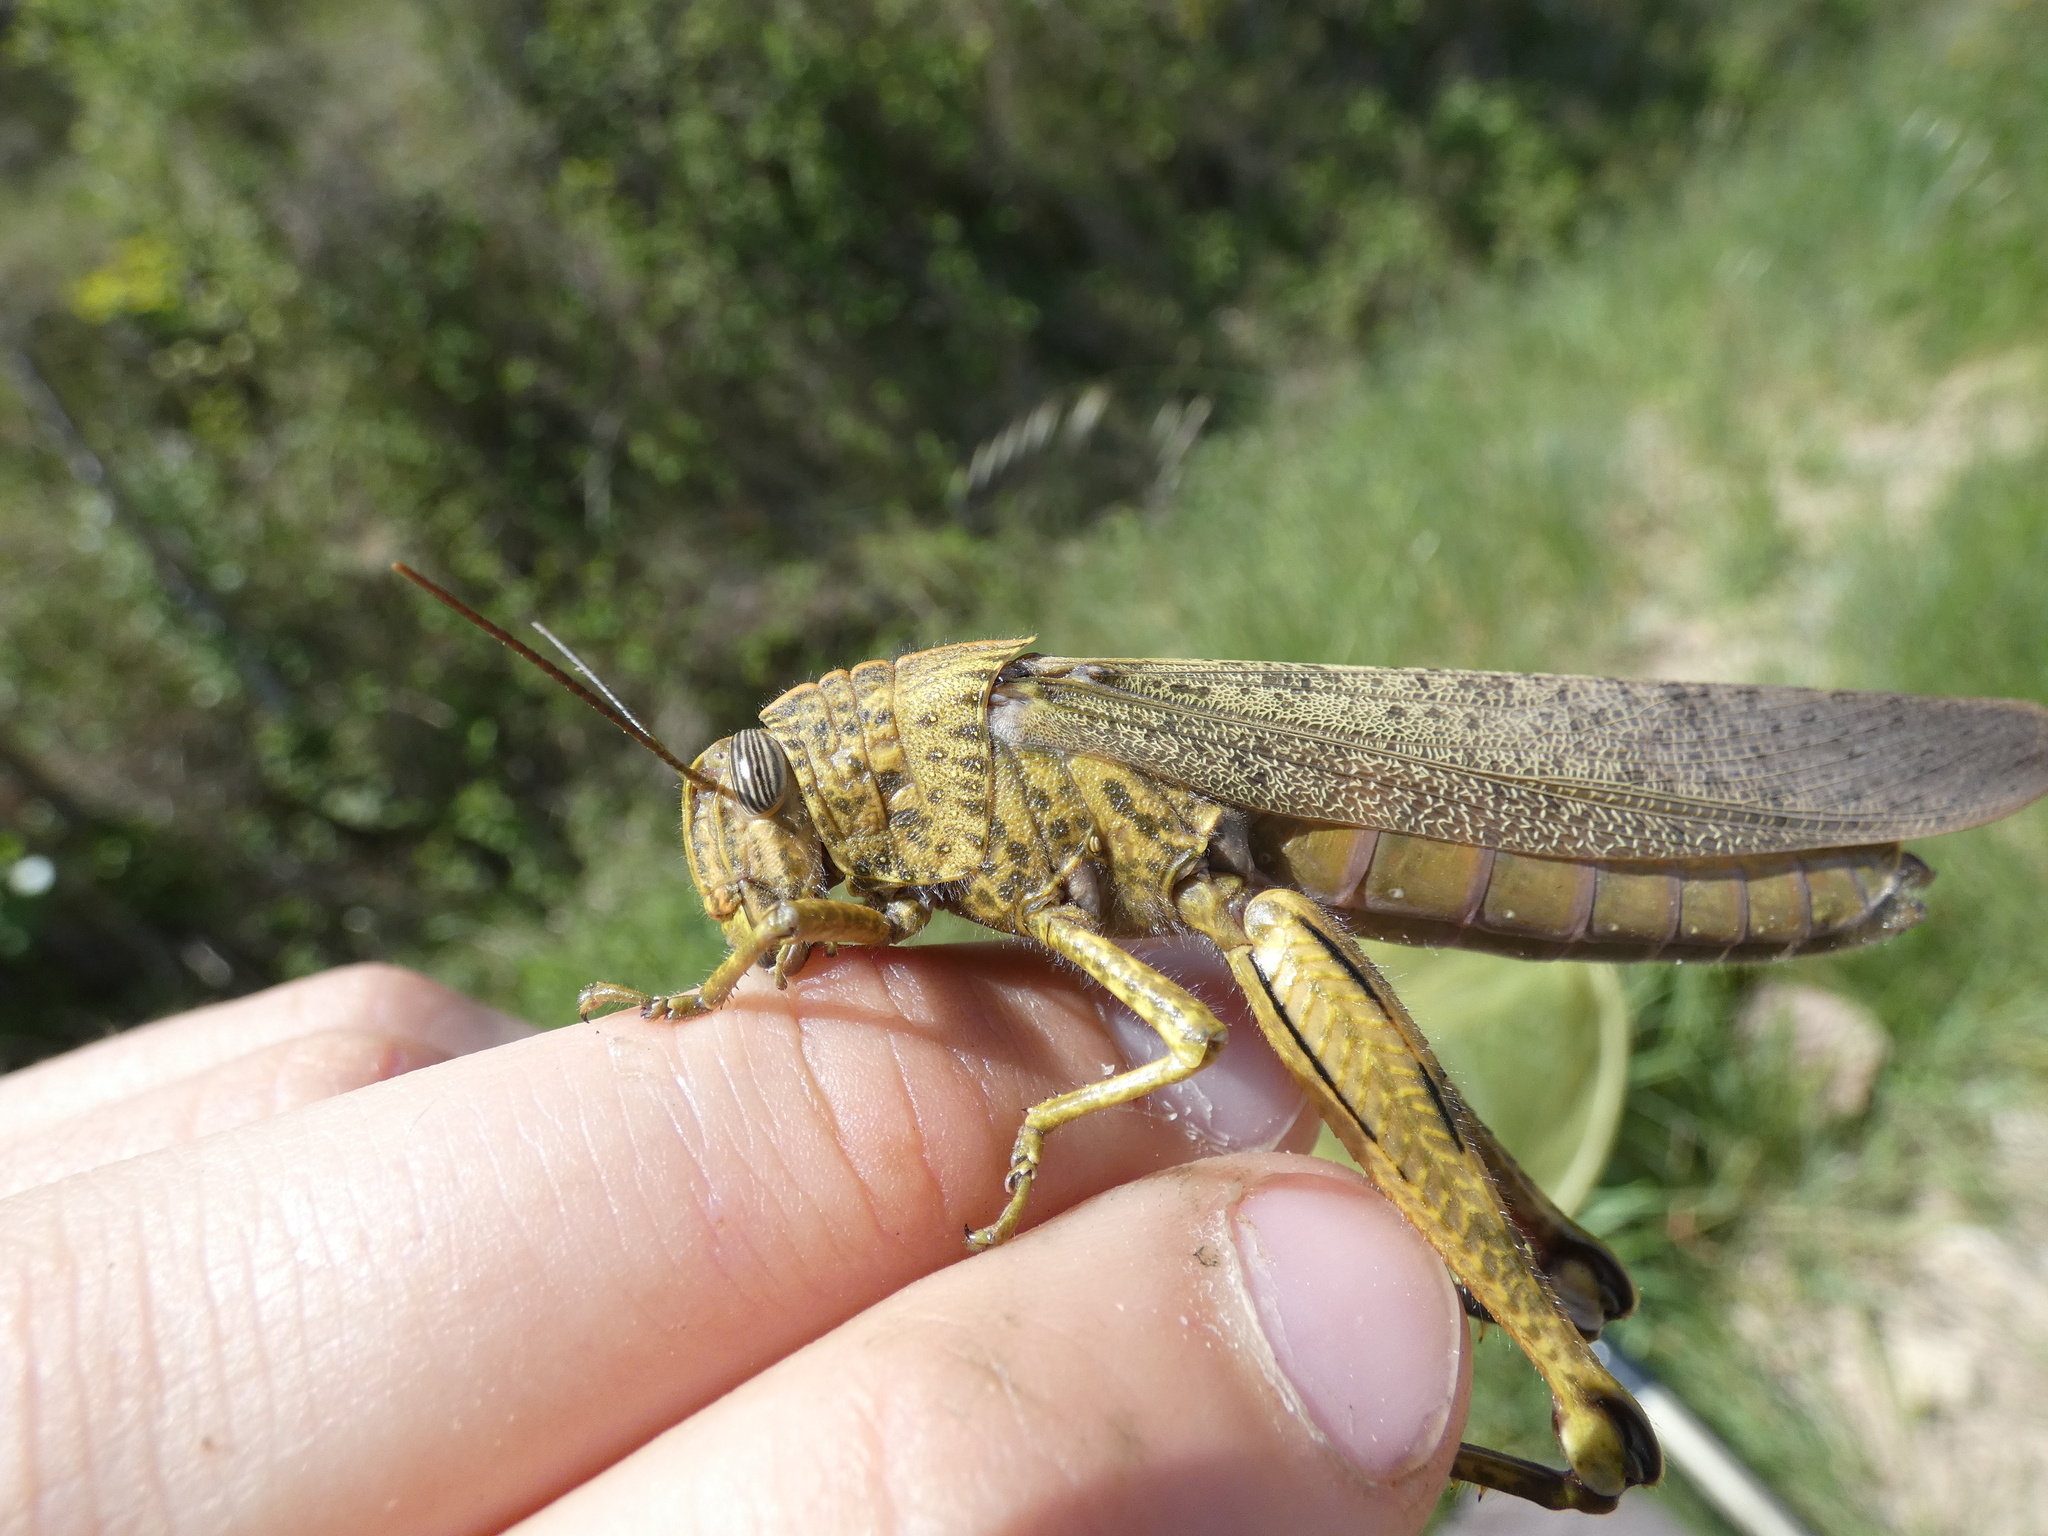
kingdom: Animalia
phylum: Arthropoda
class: Insecta
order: Orthoptera
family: Acrididae
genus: Anacridium
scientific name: Anacridium aegyptium
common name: Egyptian grasshopper
